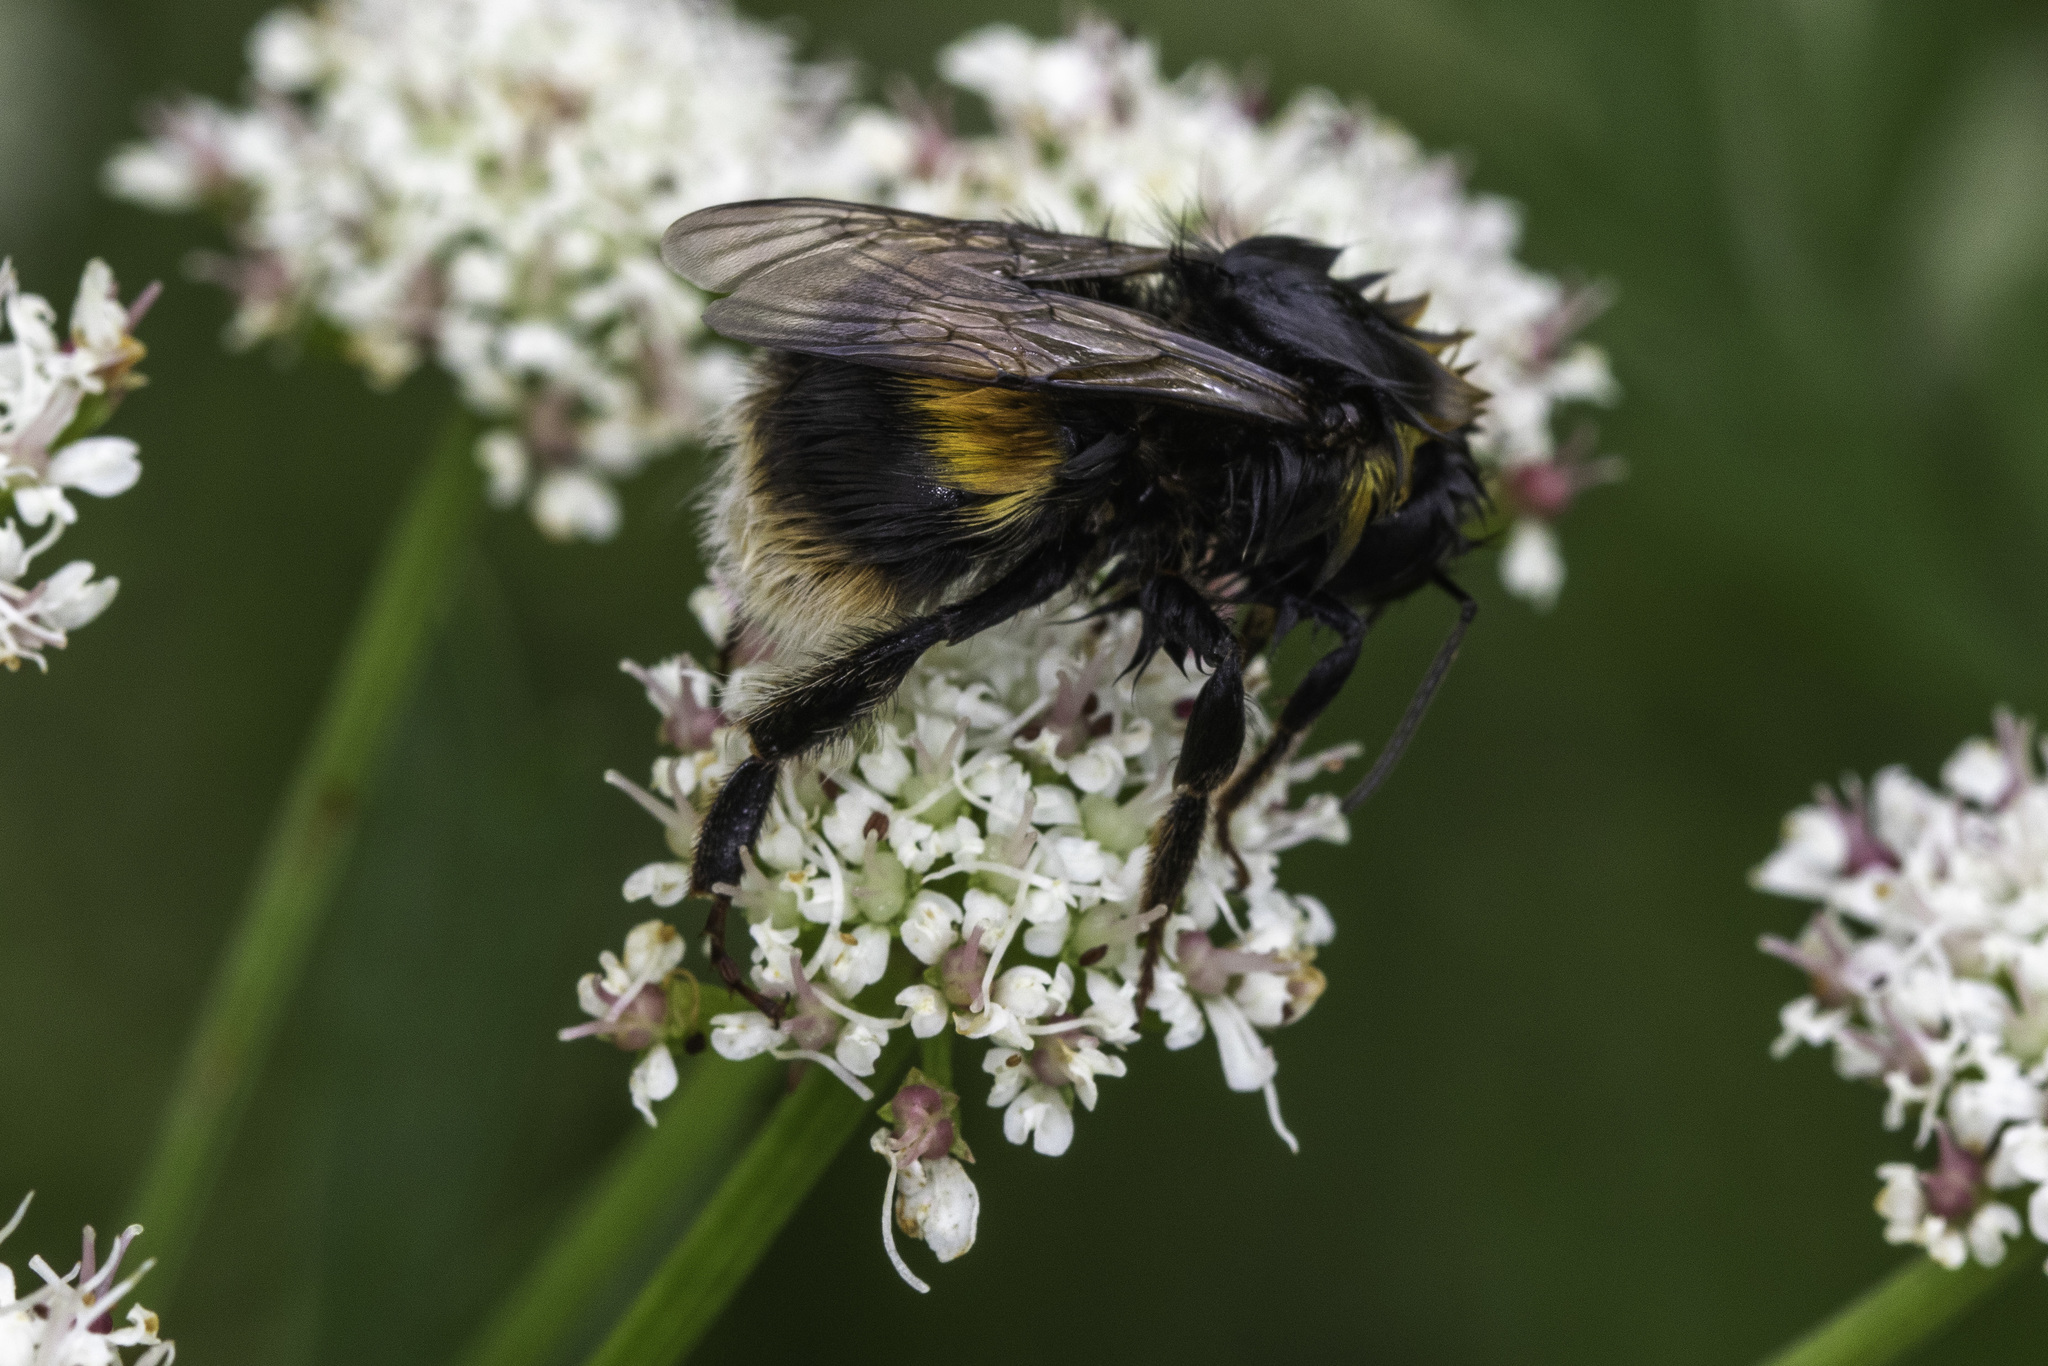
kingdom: Animalia
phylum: Arthropoda
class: Insecta
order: Hymenoptera
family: Apidae
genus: Bombus
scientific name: Bombus terrestris
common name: Buff-tailed bumblebee
